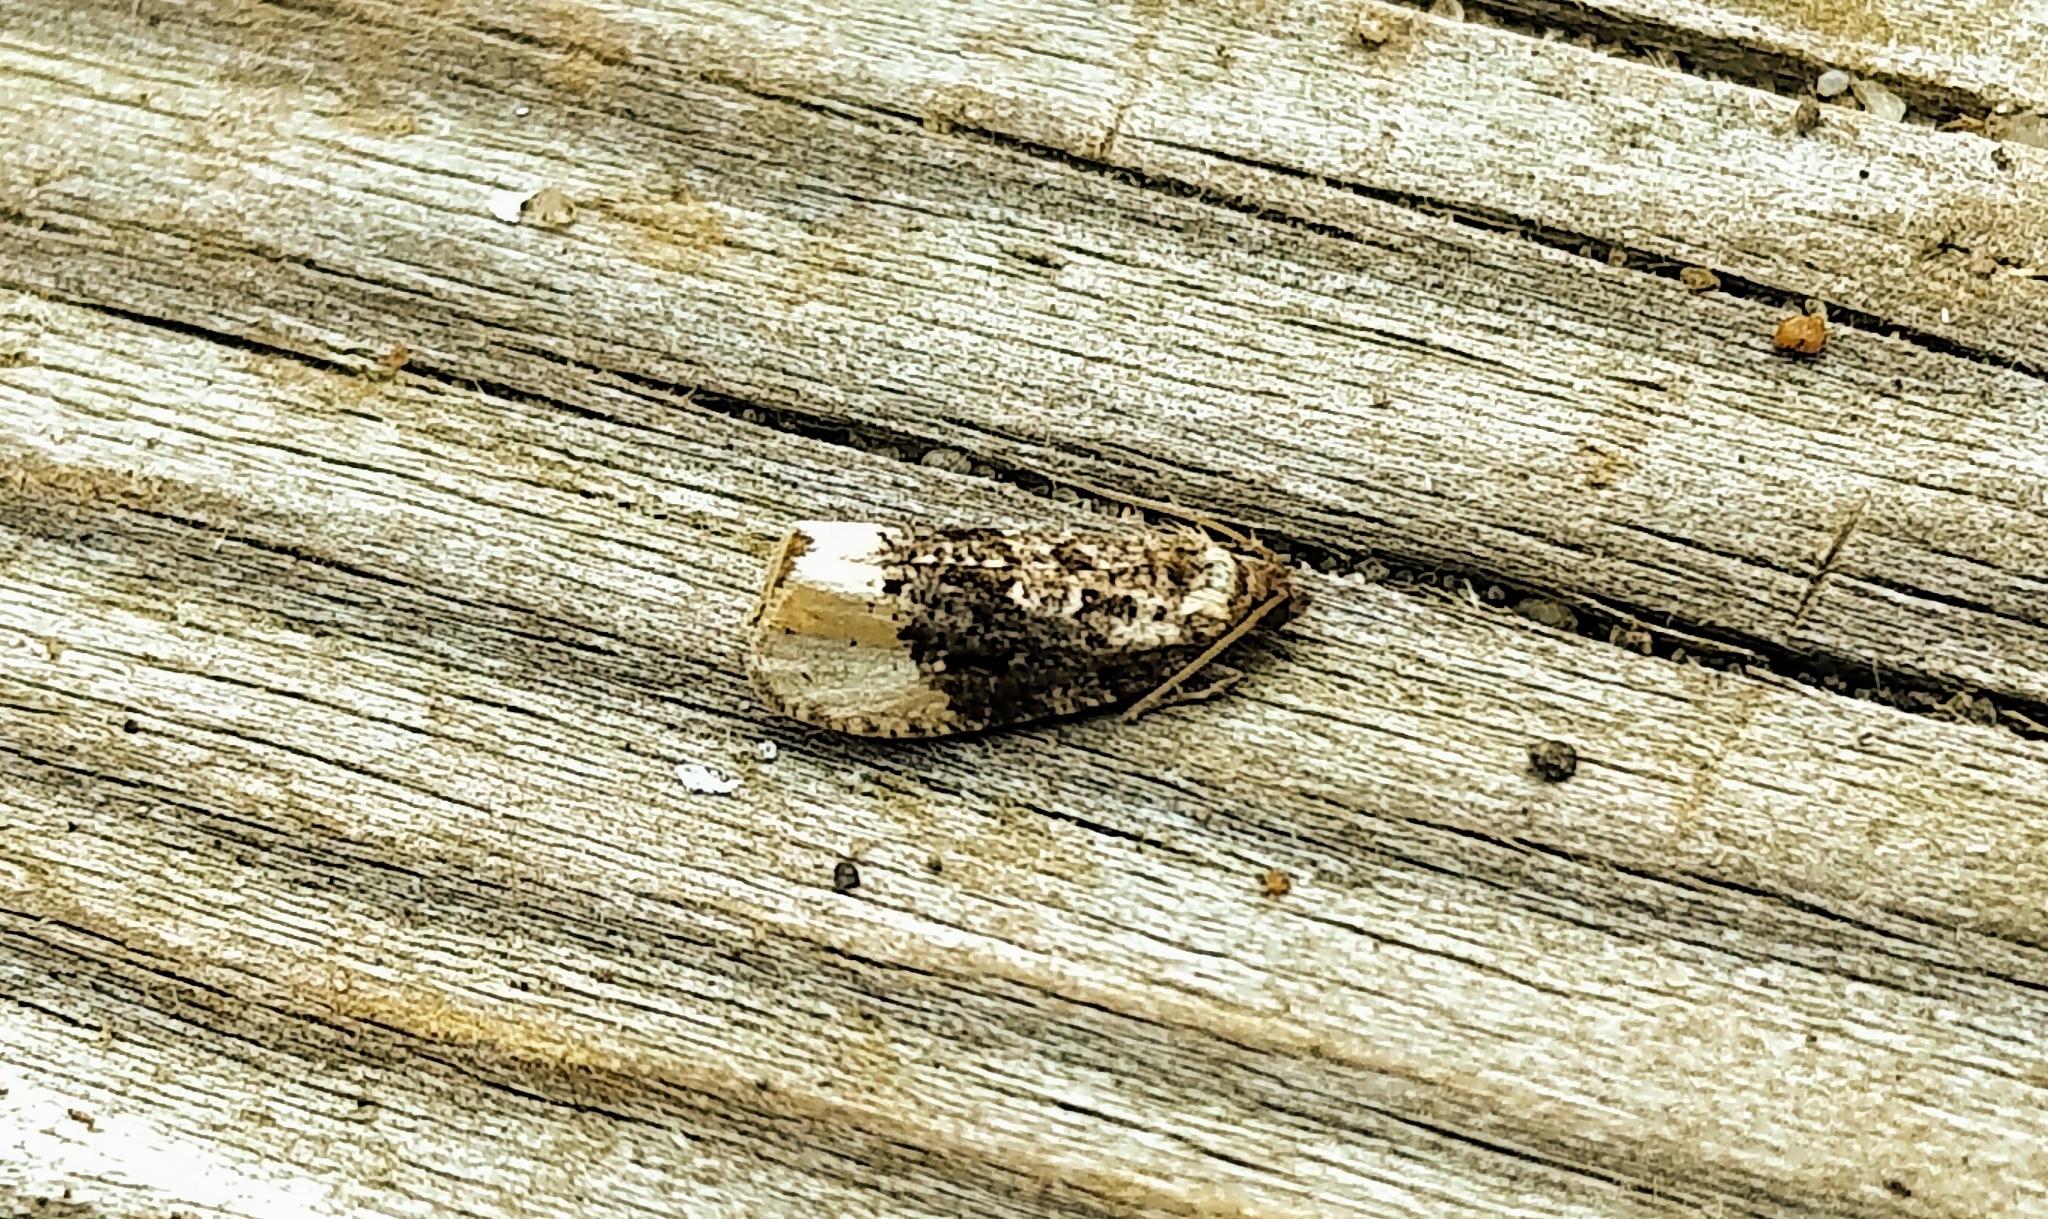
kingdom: Animalia
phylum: Arthropoda
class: Insecta
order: Lepidoptera
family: Tortricidae
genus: Hedya
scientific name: Hedya ochroleucana
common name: Buff-tipped marble
